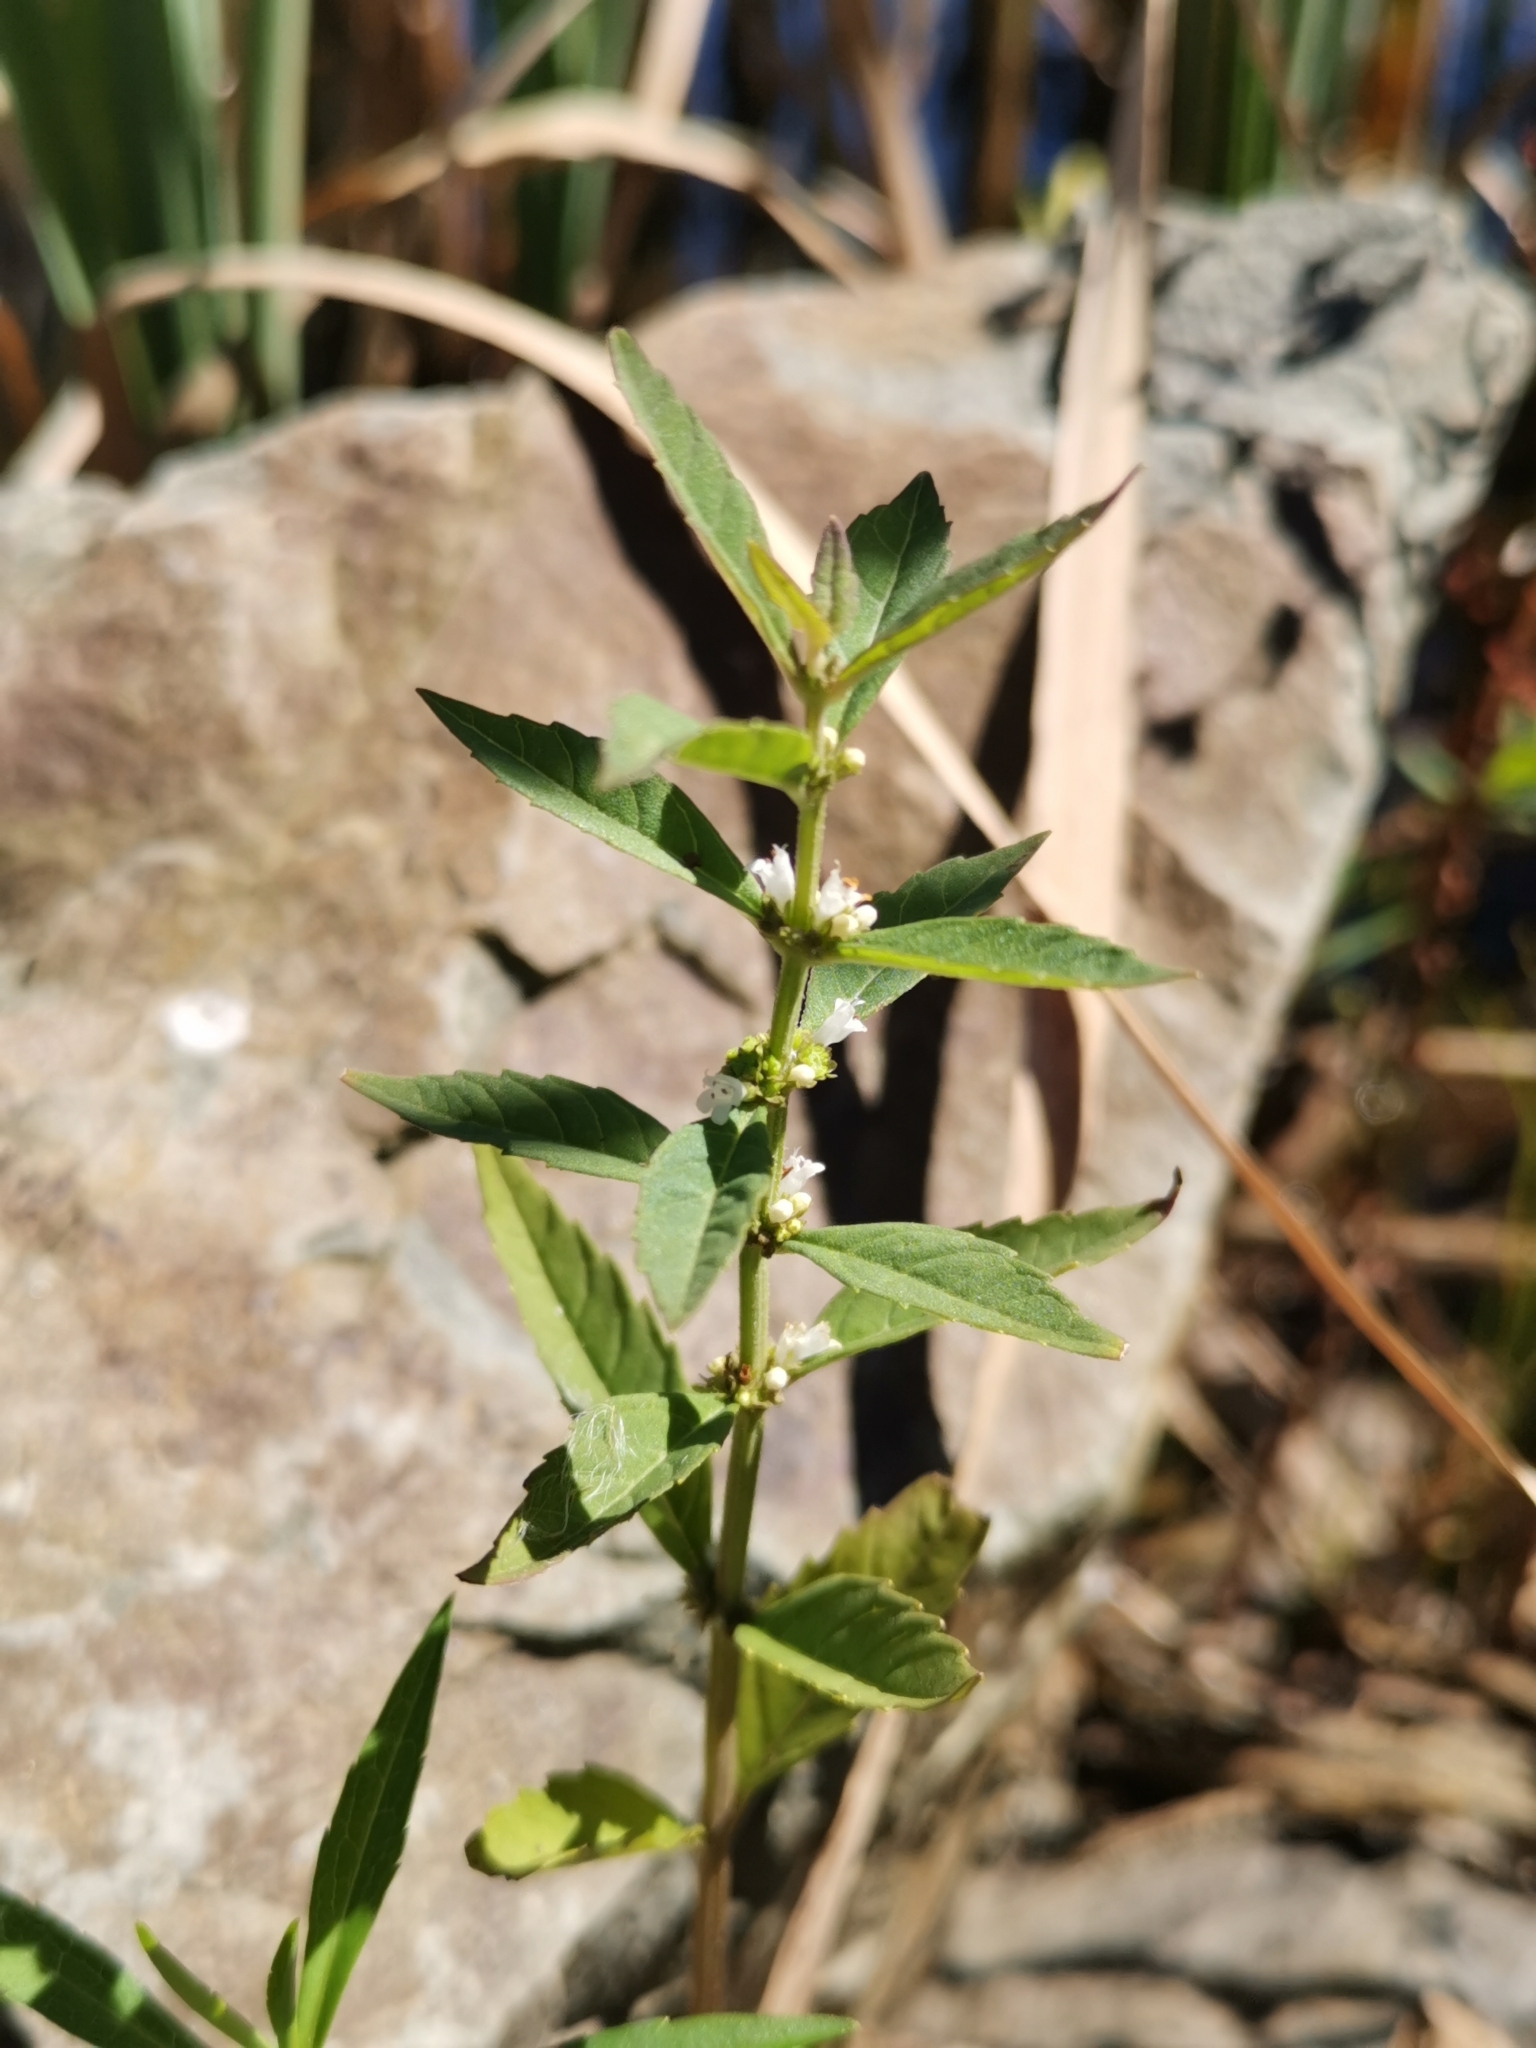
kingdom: Plantae
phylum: Tracheophyta
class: Magnoliopsida
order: Lamiales
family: Lamiaceae
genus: Lycopus
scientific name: Lycopus uniflorus
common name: Northern bugleweed
